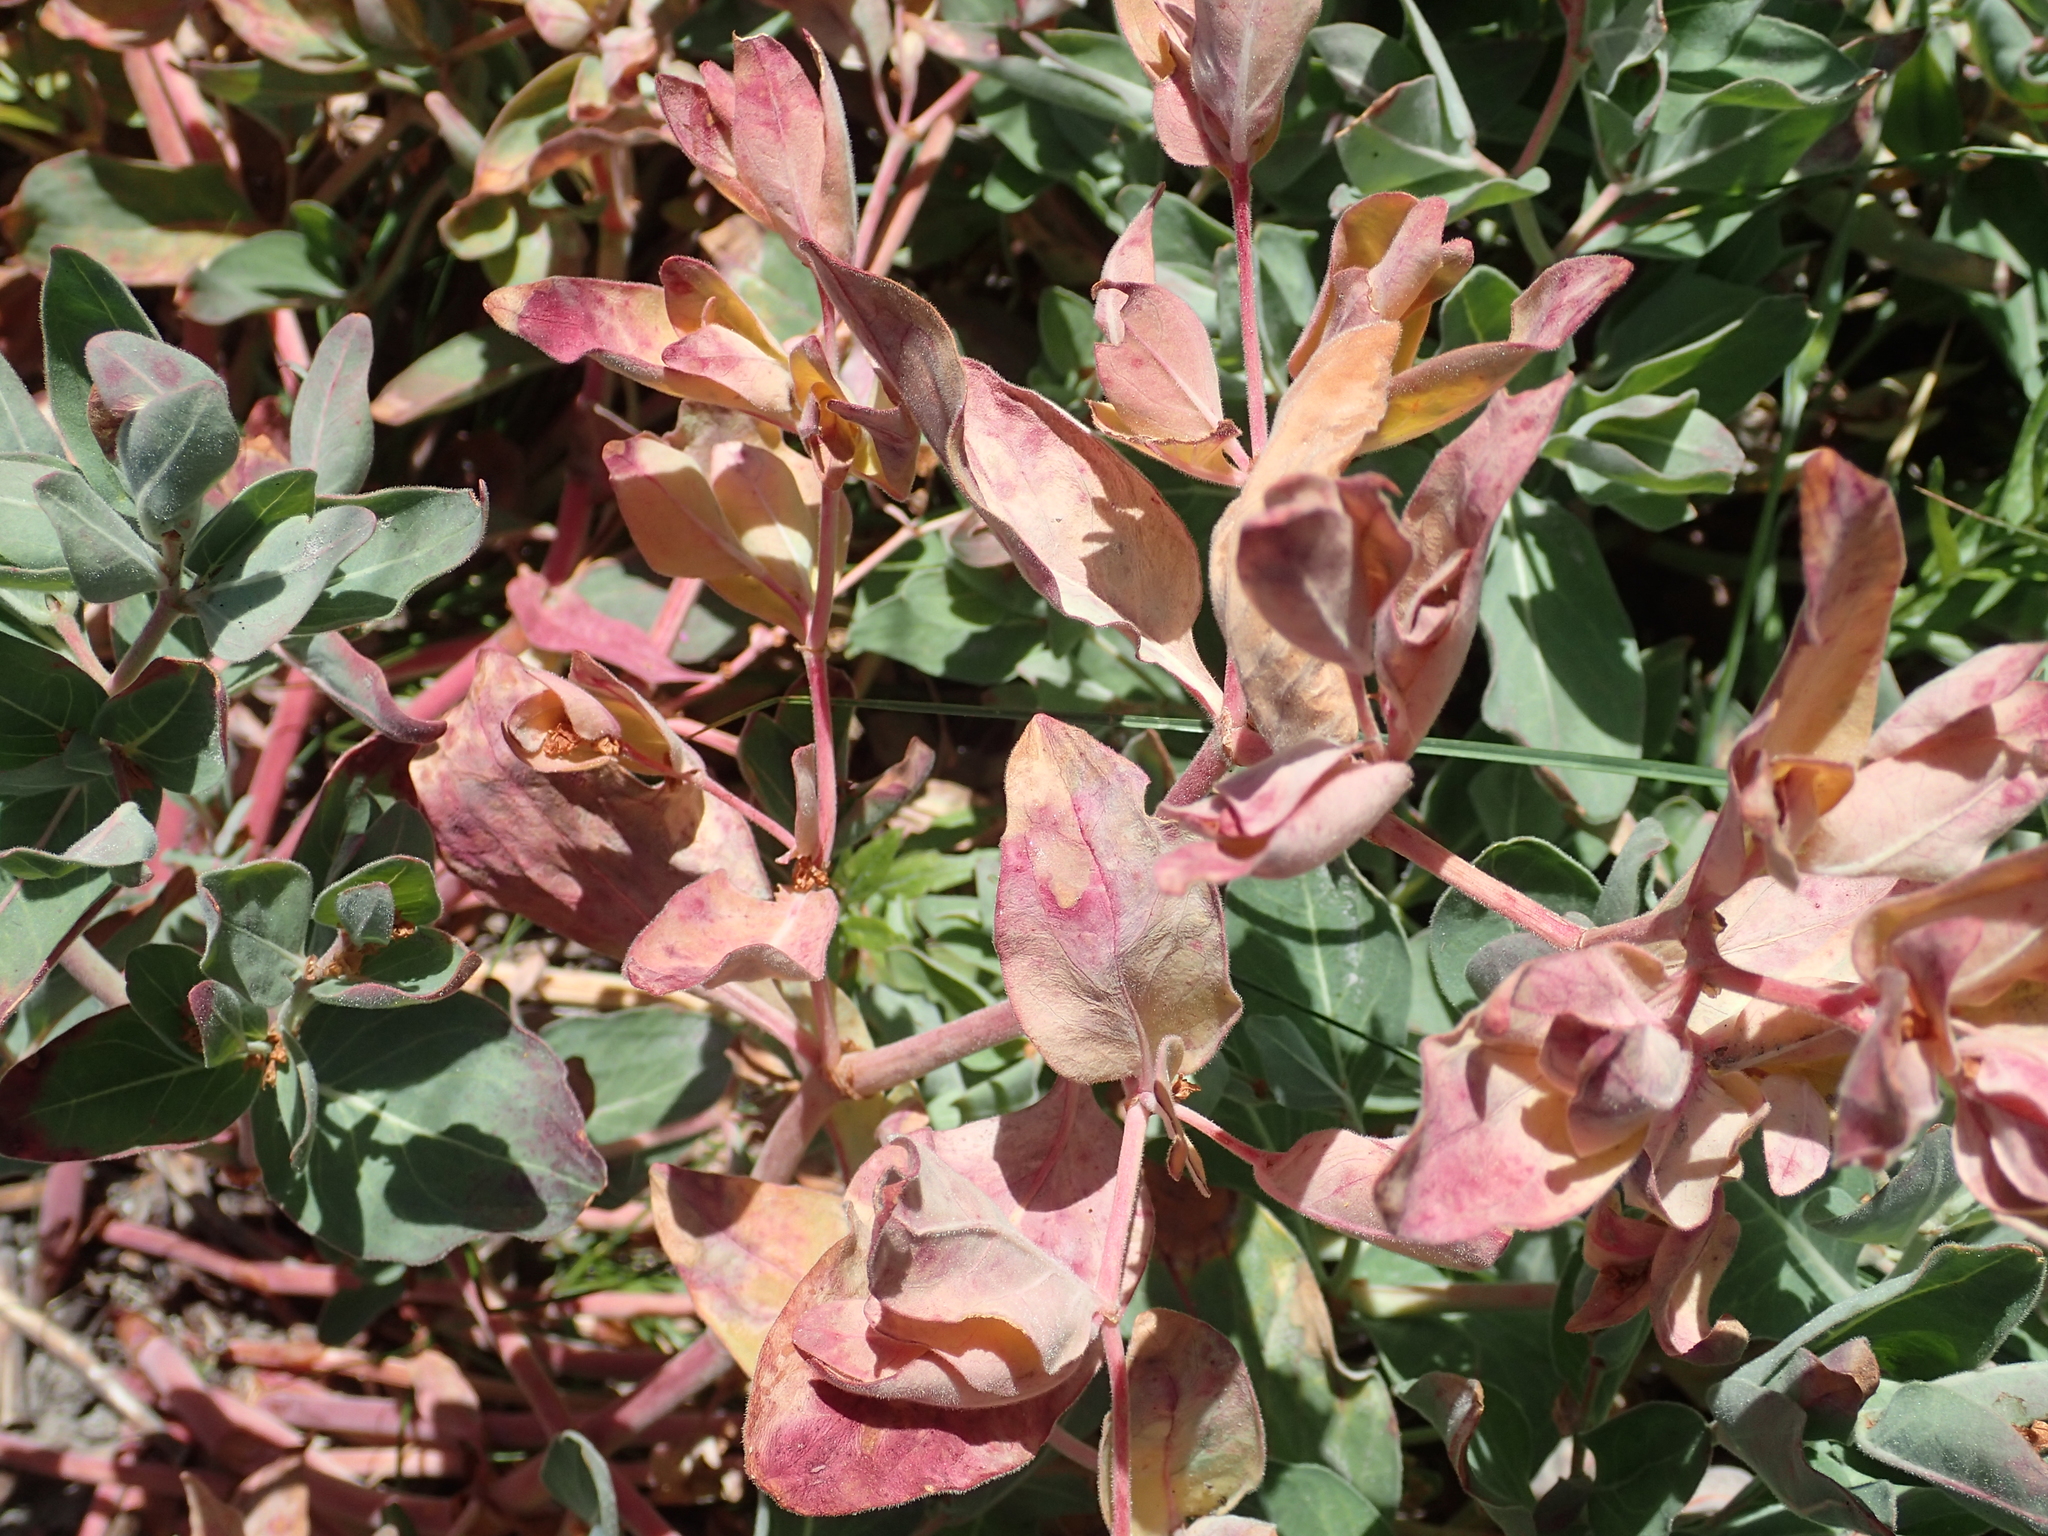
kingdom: Plantae
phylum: Tracheophyta
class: Magnoliopsida
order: Caryophyllales
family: Polygonaceae
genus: Koenigia
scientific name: Koenigia davisiae
